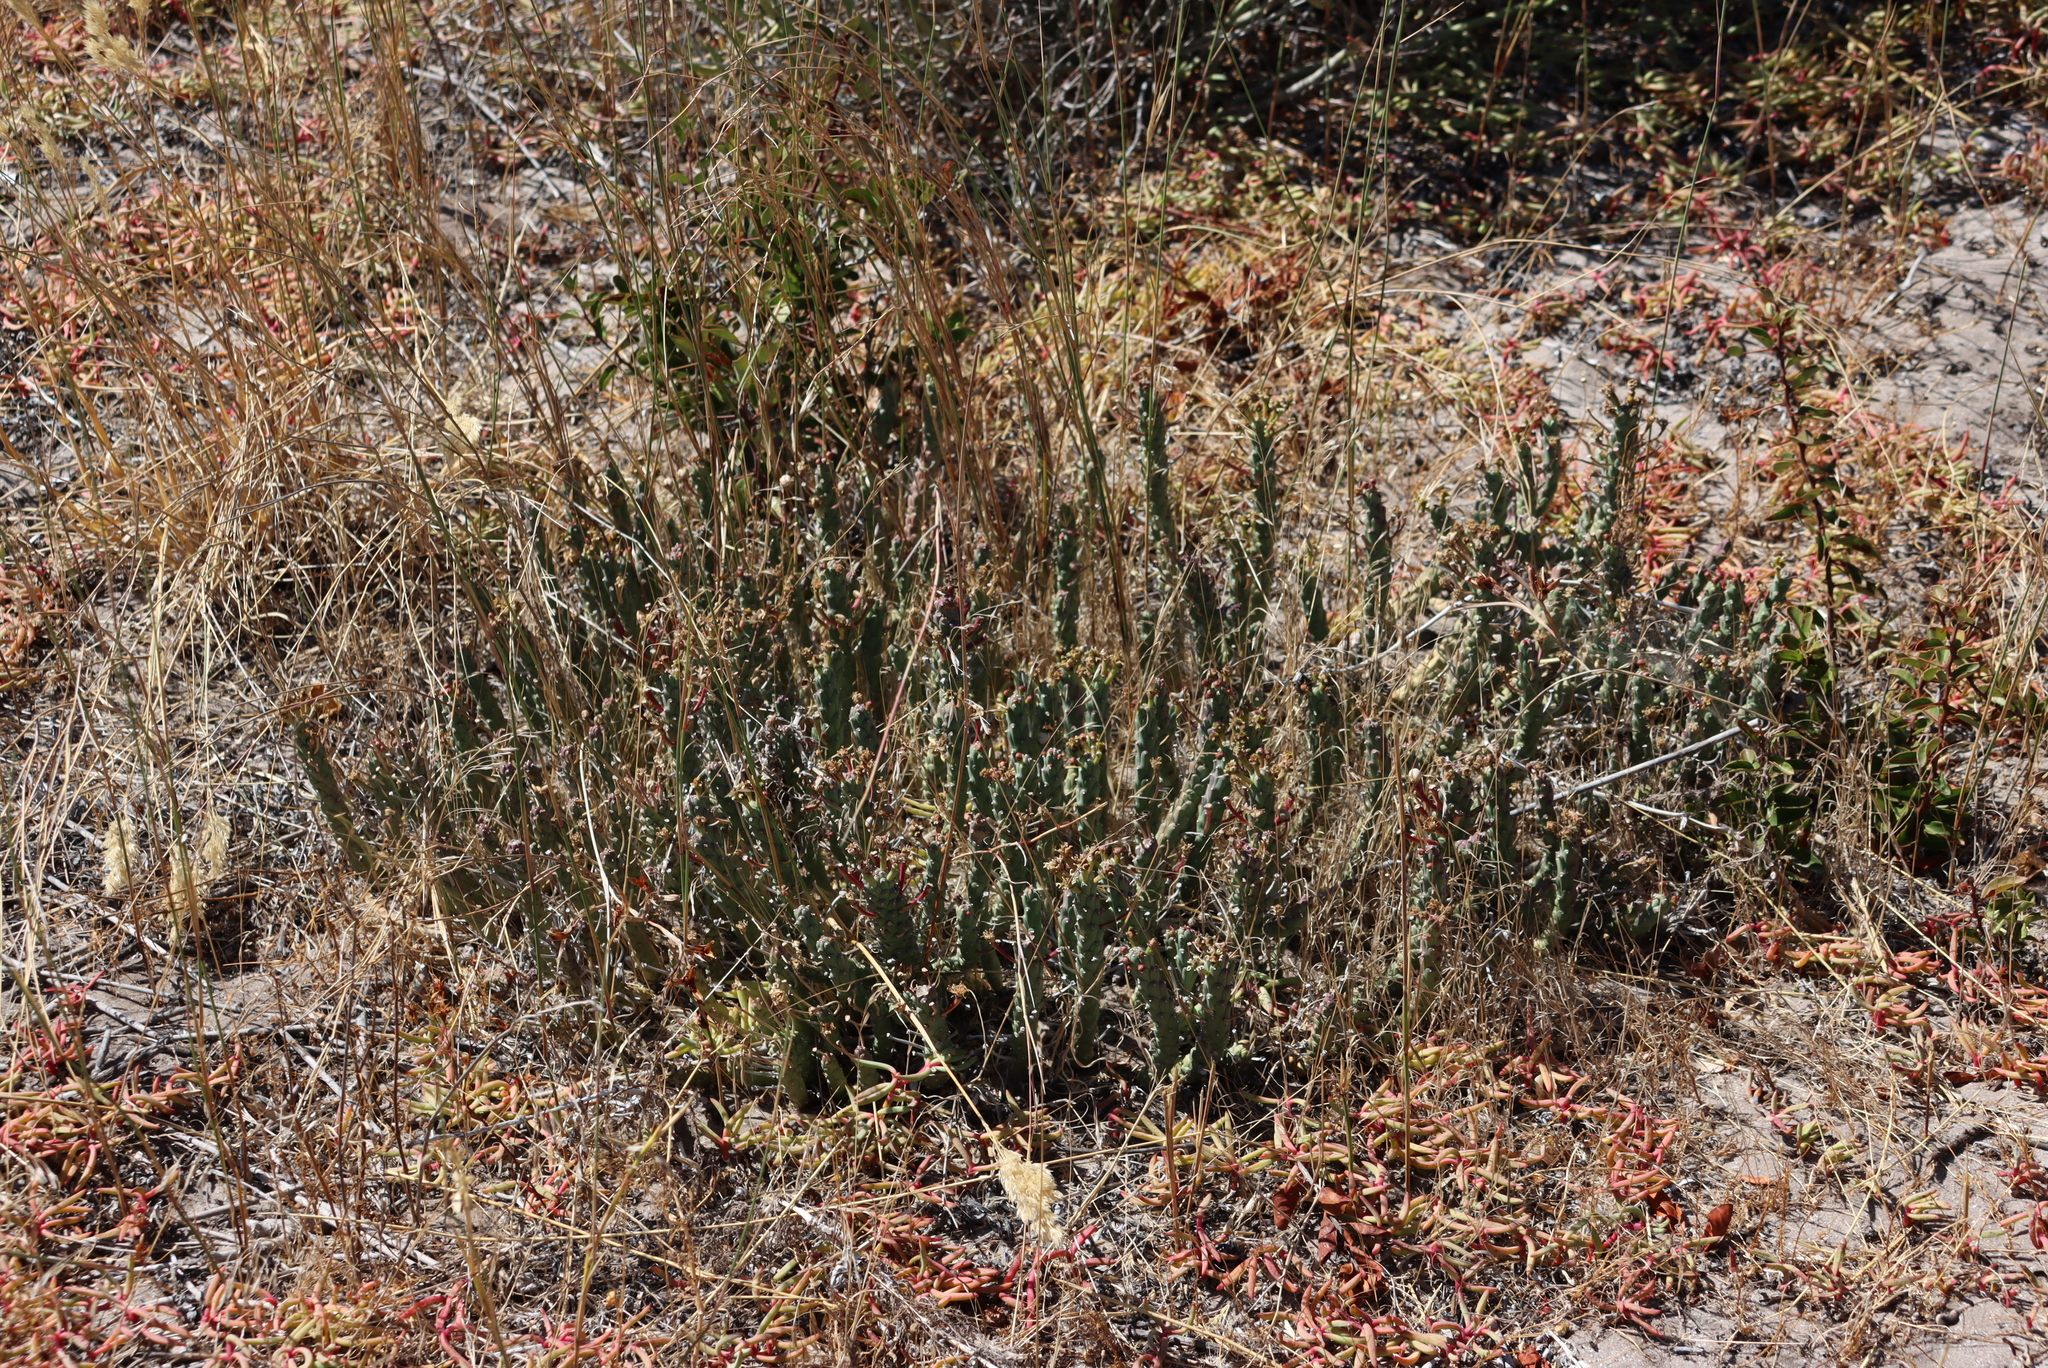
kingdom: Plantae
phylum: Tracheophyta
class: Magnoliopsida
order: Malpighiales
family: Euphorbiaceae
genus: Euphorbia
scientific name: Euphorbia caput-medusae
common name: Medusa's-head
